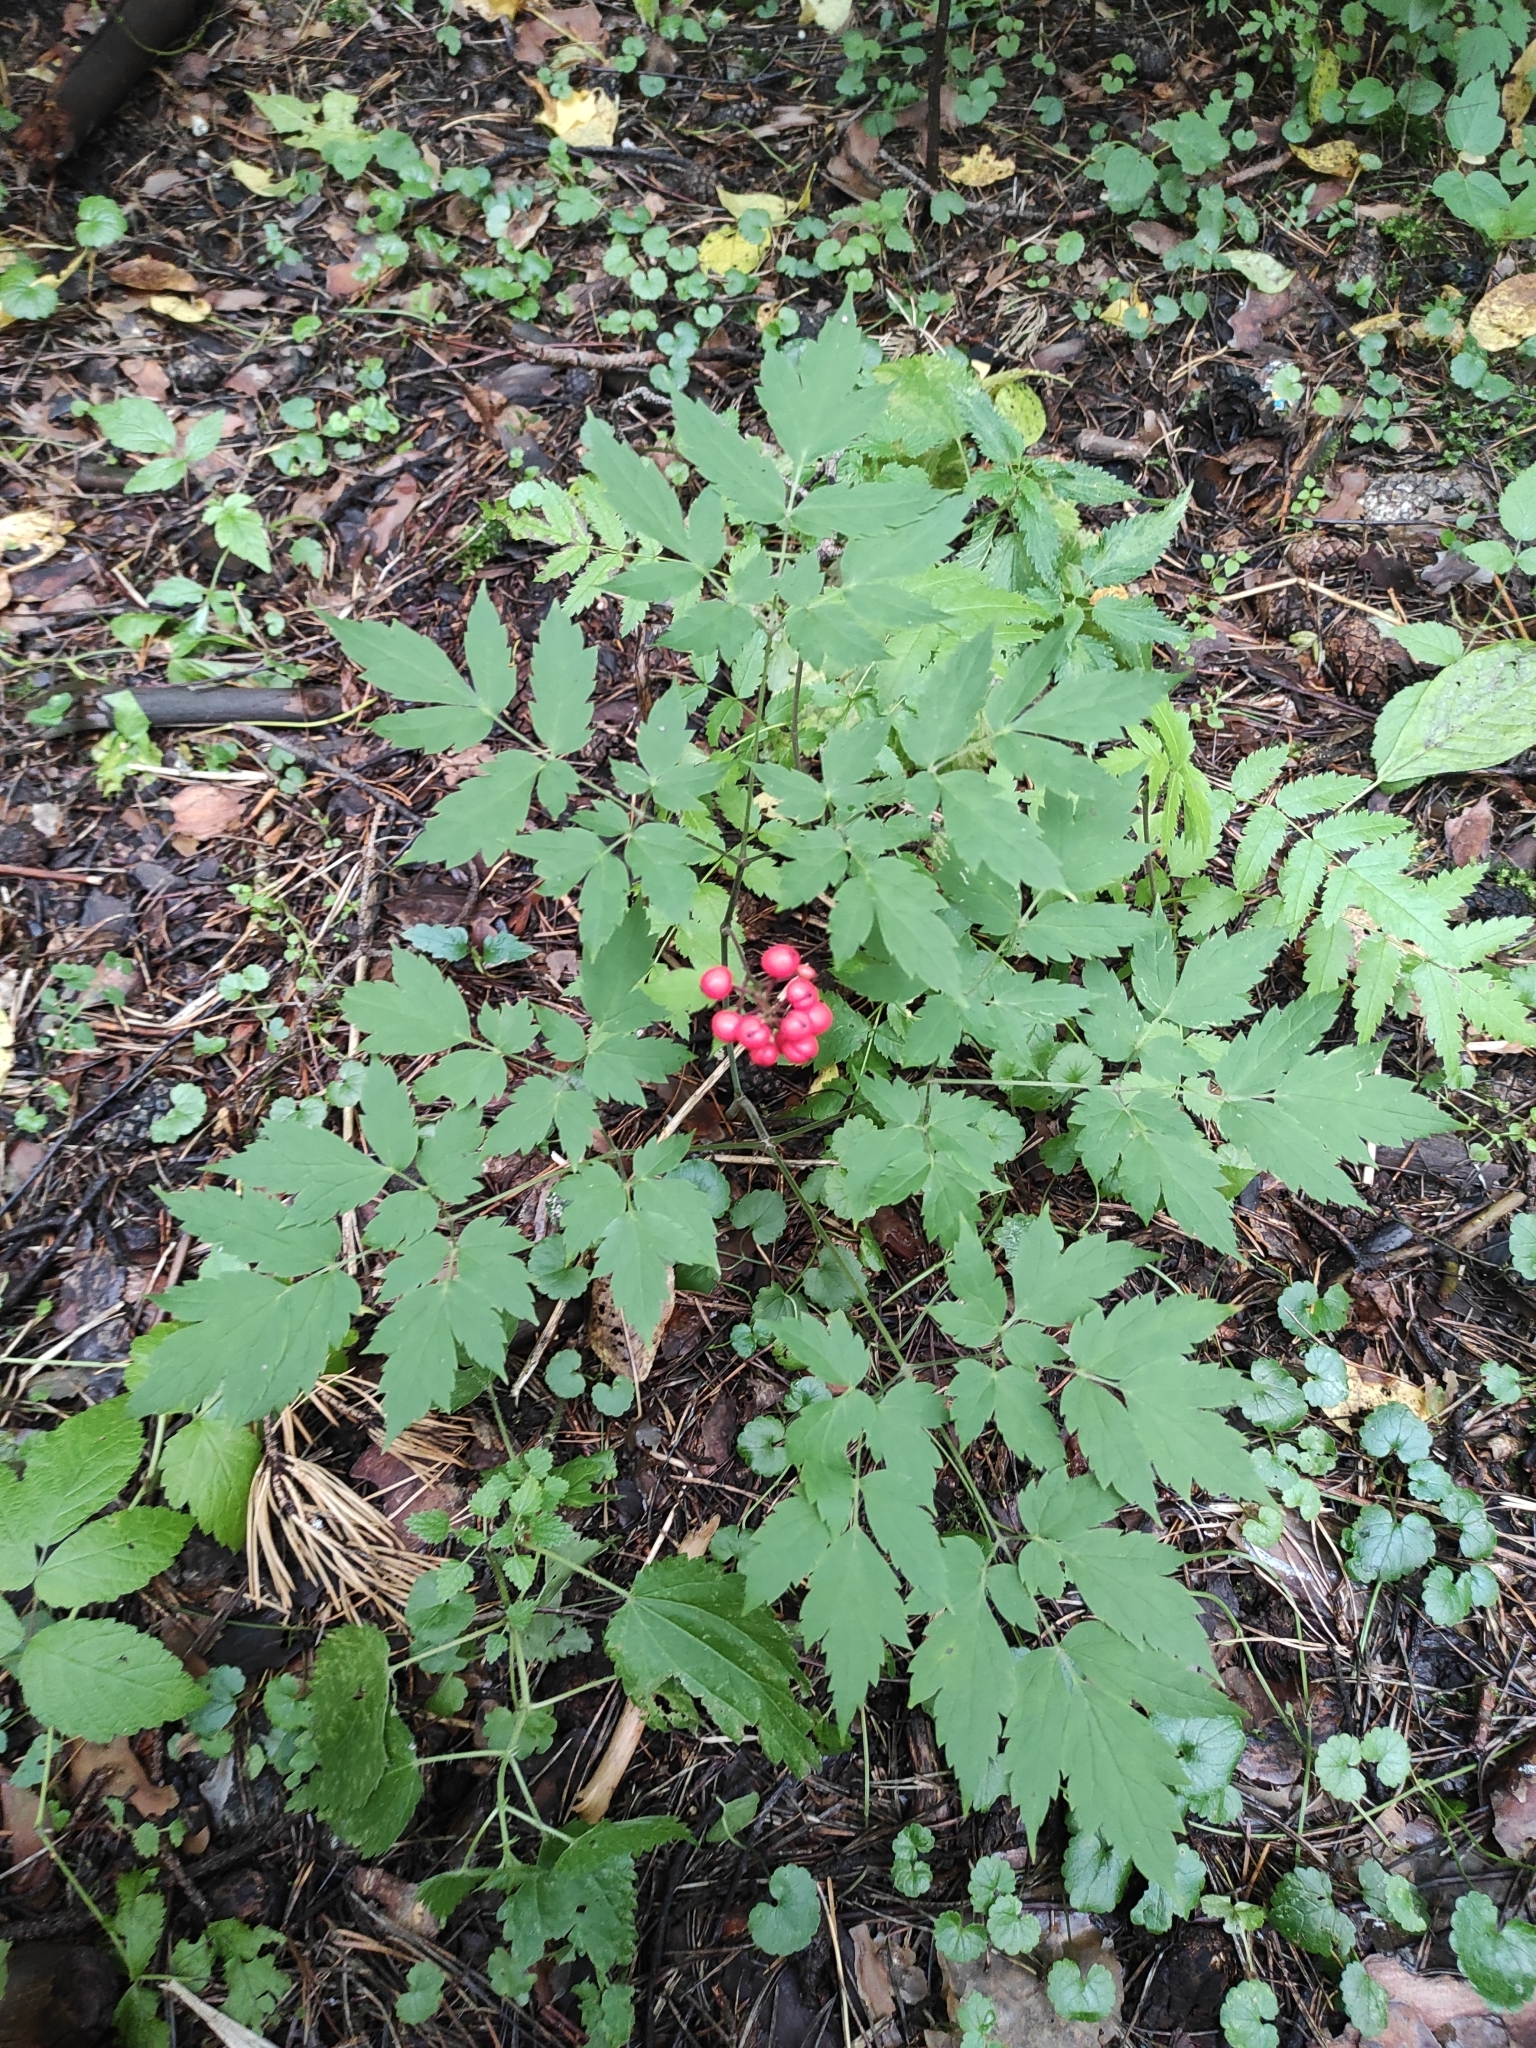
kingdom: Plantae
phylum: Tracheophyta
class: Magnoliopsida
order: Ranunculales
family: Ranunculaceae
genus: Actaea
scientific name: Actaea erythrocarpa
